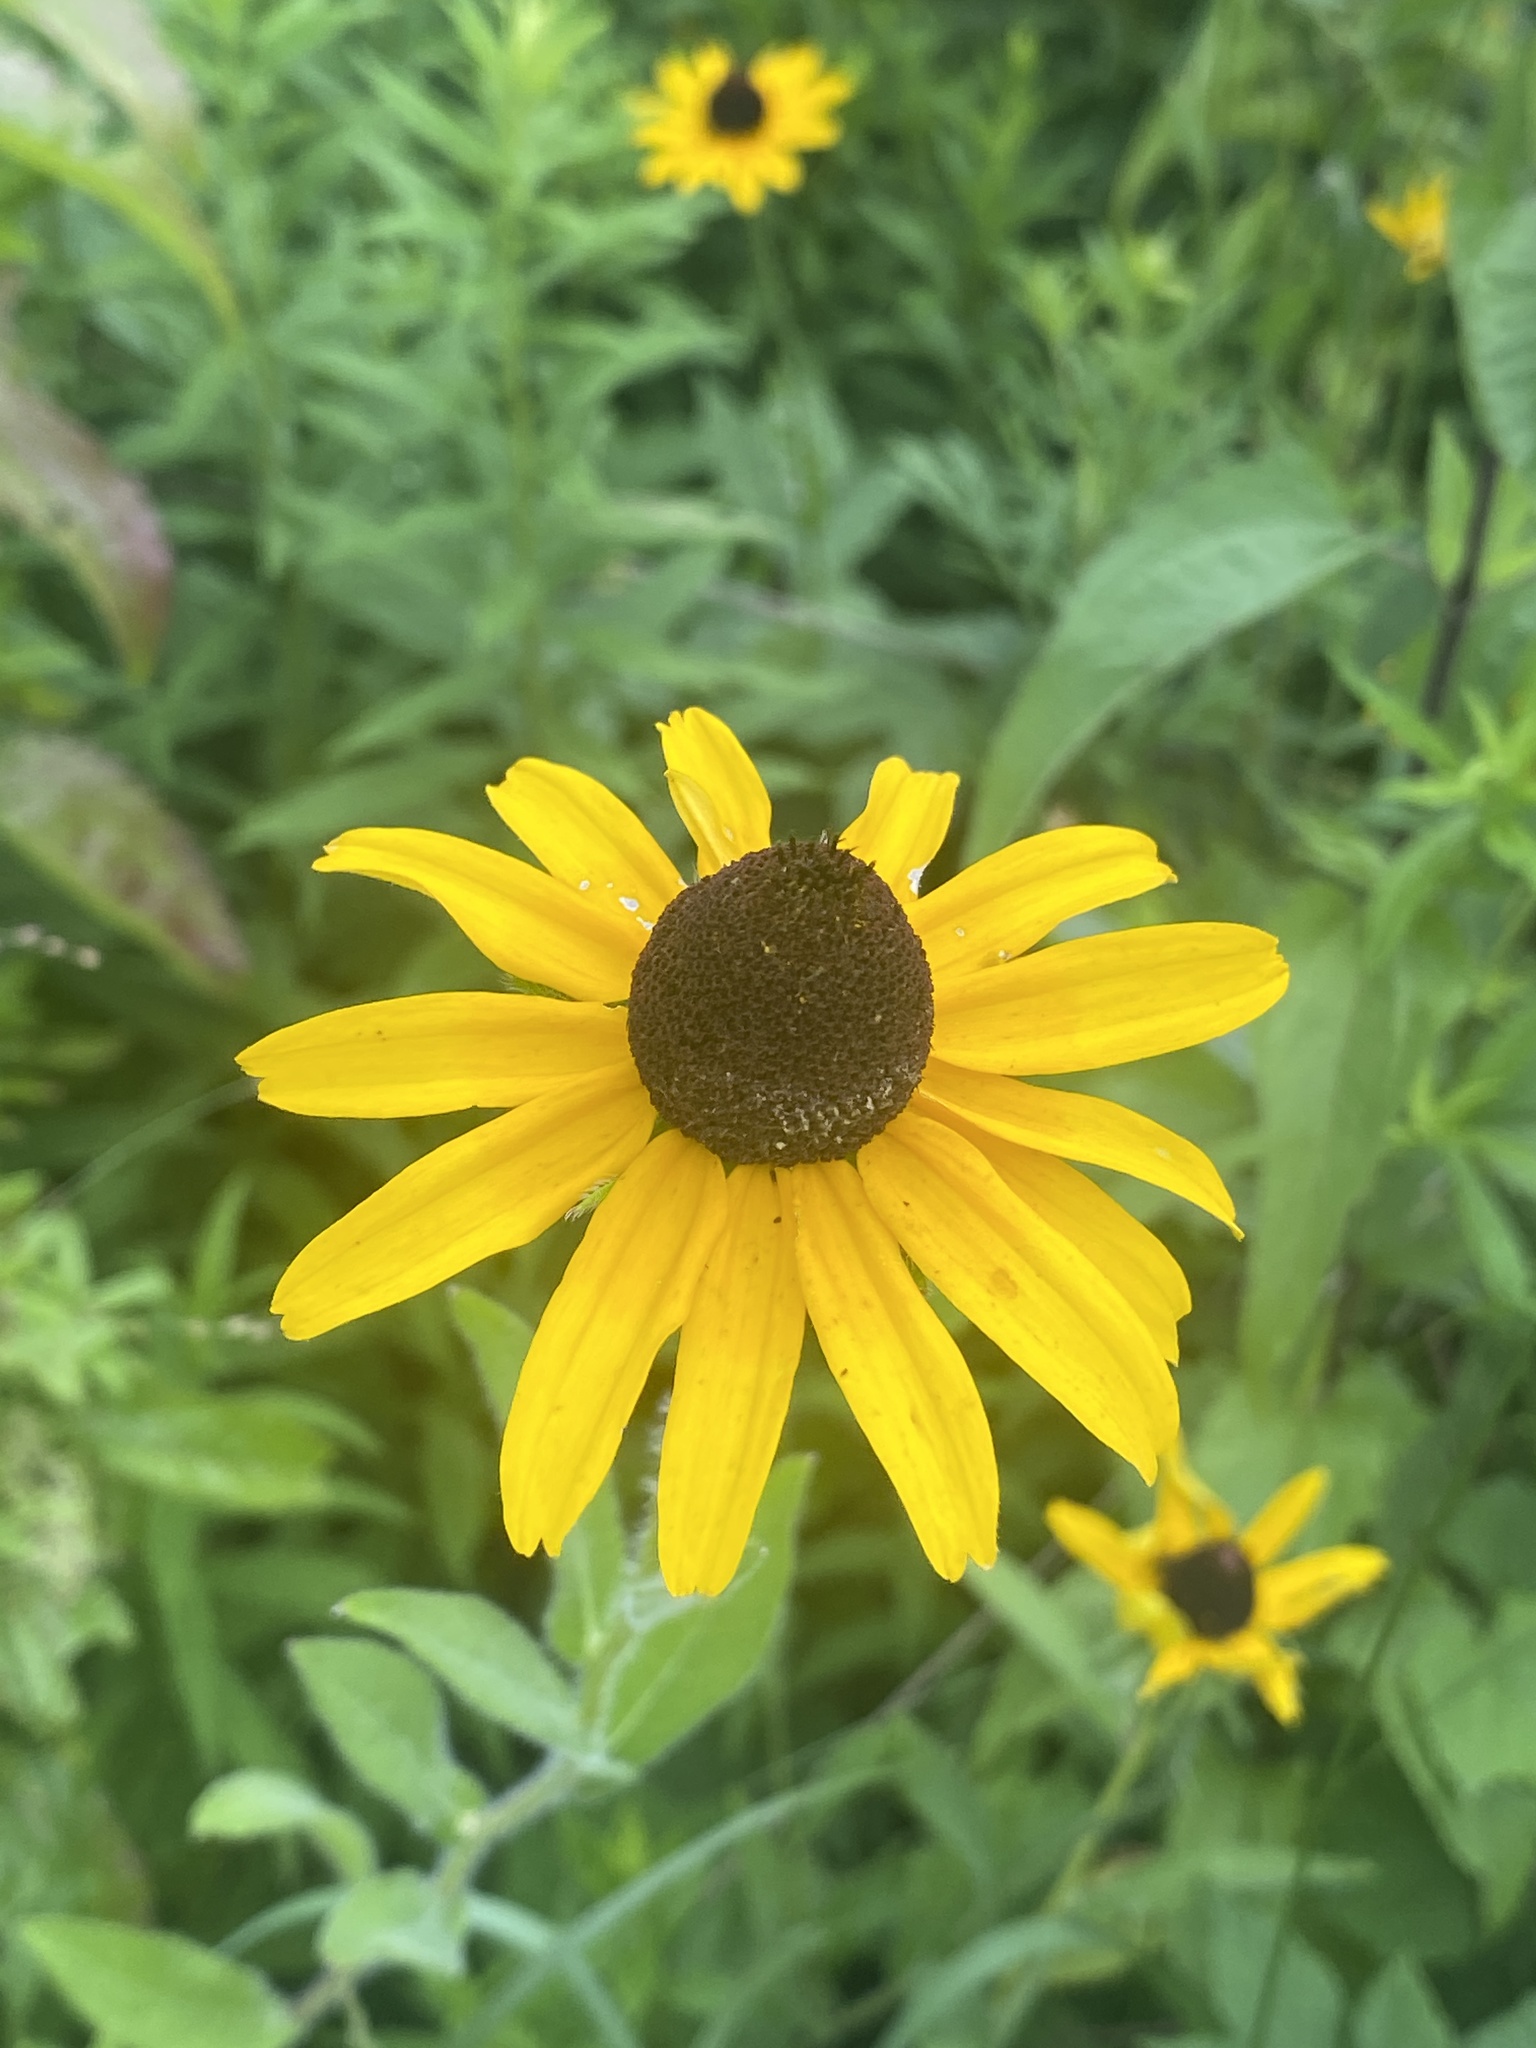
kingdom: Plantae
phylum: Tracheophyta
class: Magnoliopsida
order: Asterales
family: Asteraceae
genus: Rudbeckia
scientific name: Rudbeckia hirta
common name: Black-eyed-susan
